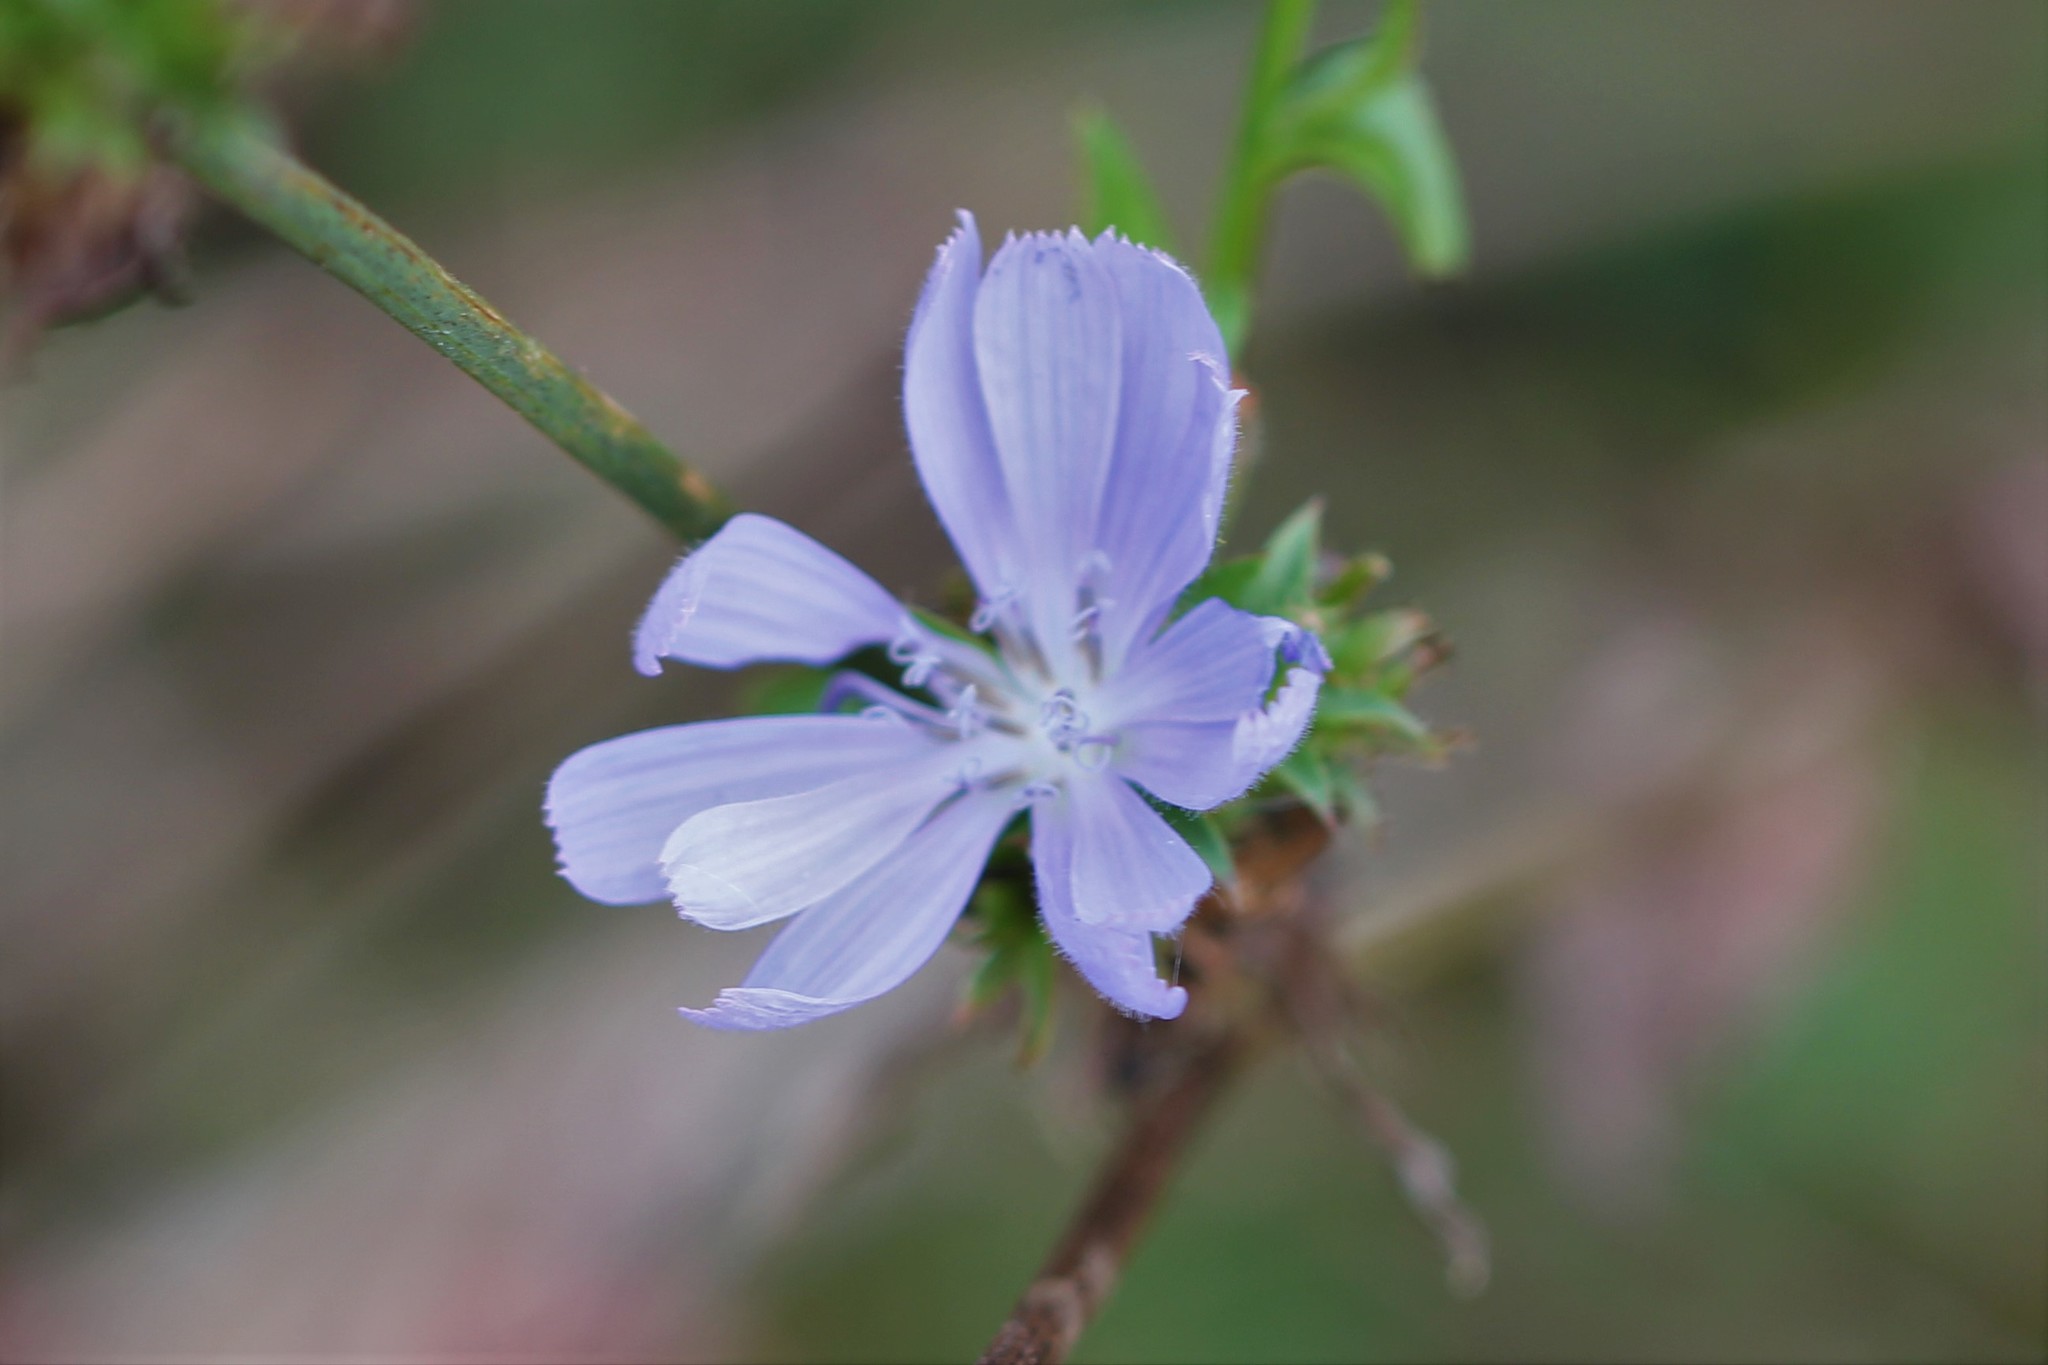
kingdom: Plantae
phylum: Tracheophyta
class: Magnoliopsida
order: Asterales
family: Asteraceae
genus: Cichorium
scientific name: Cichorium intybus
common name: Chicory
